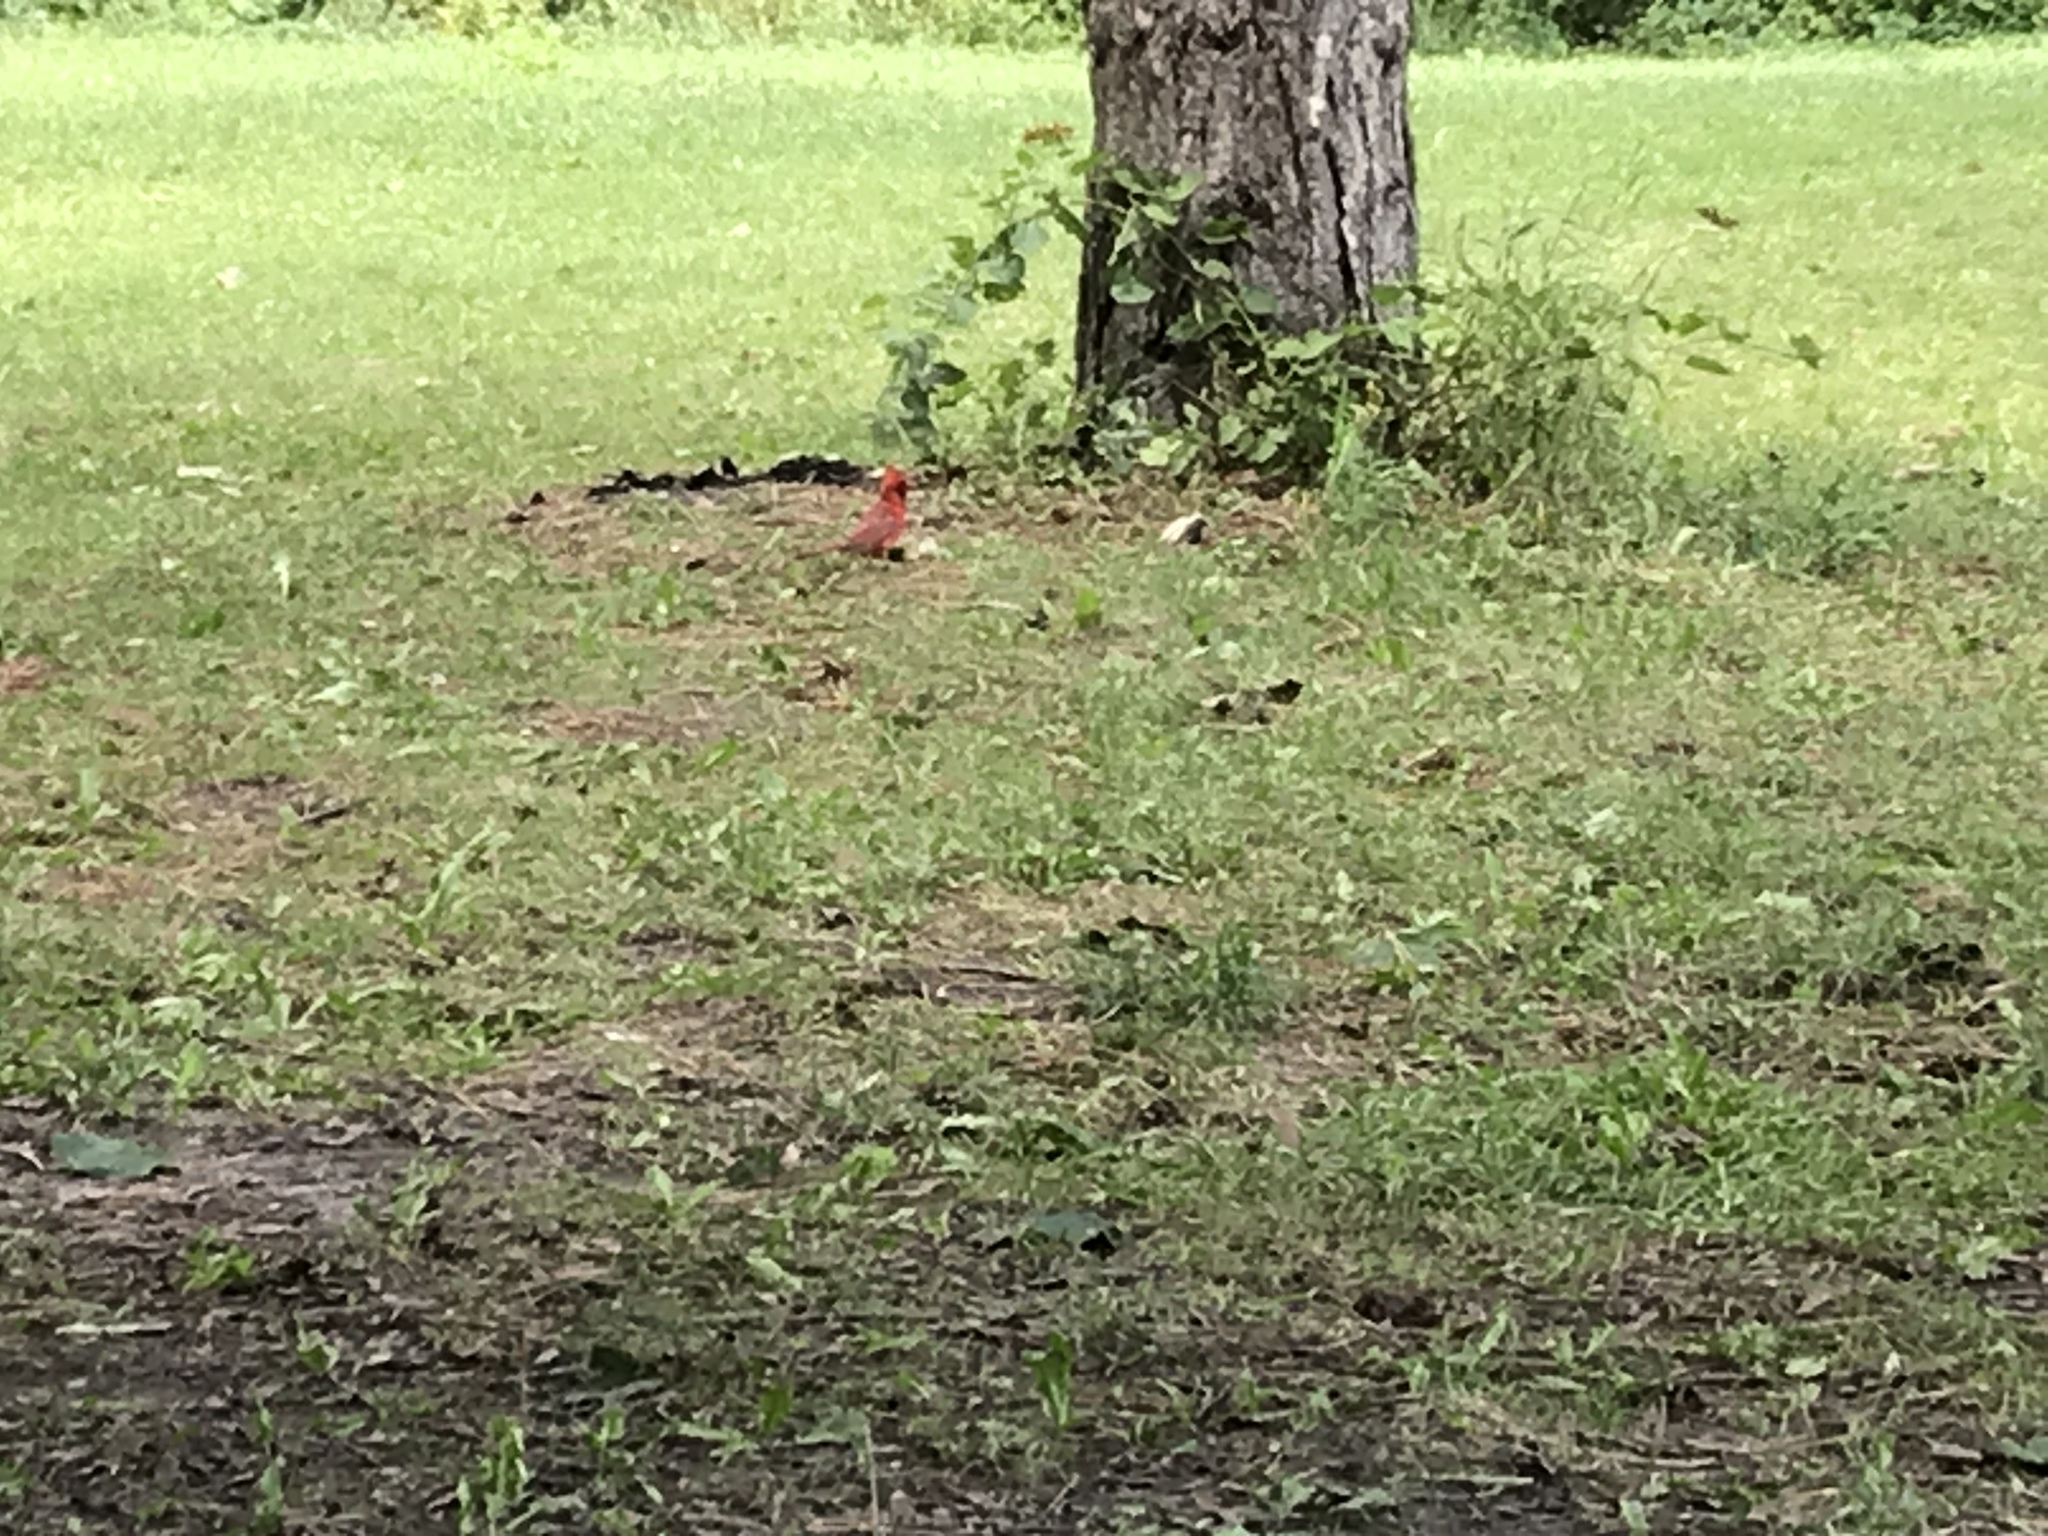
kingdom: Animalia
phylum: Chordata
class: Aves
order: Passeriformes
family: Cardinalidae
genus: Cardinalis
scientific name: Cardinalis cardinalis
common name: Northern cardinal
